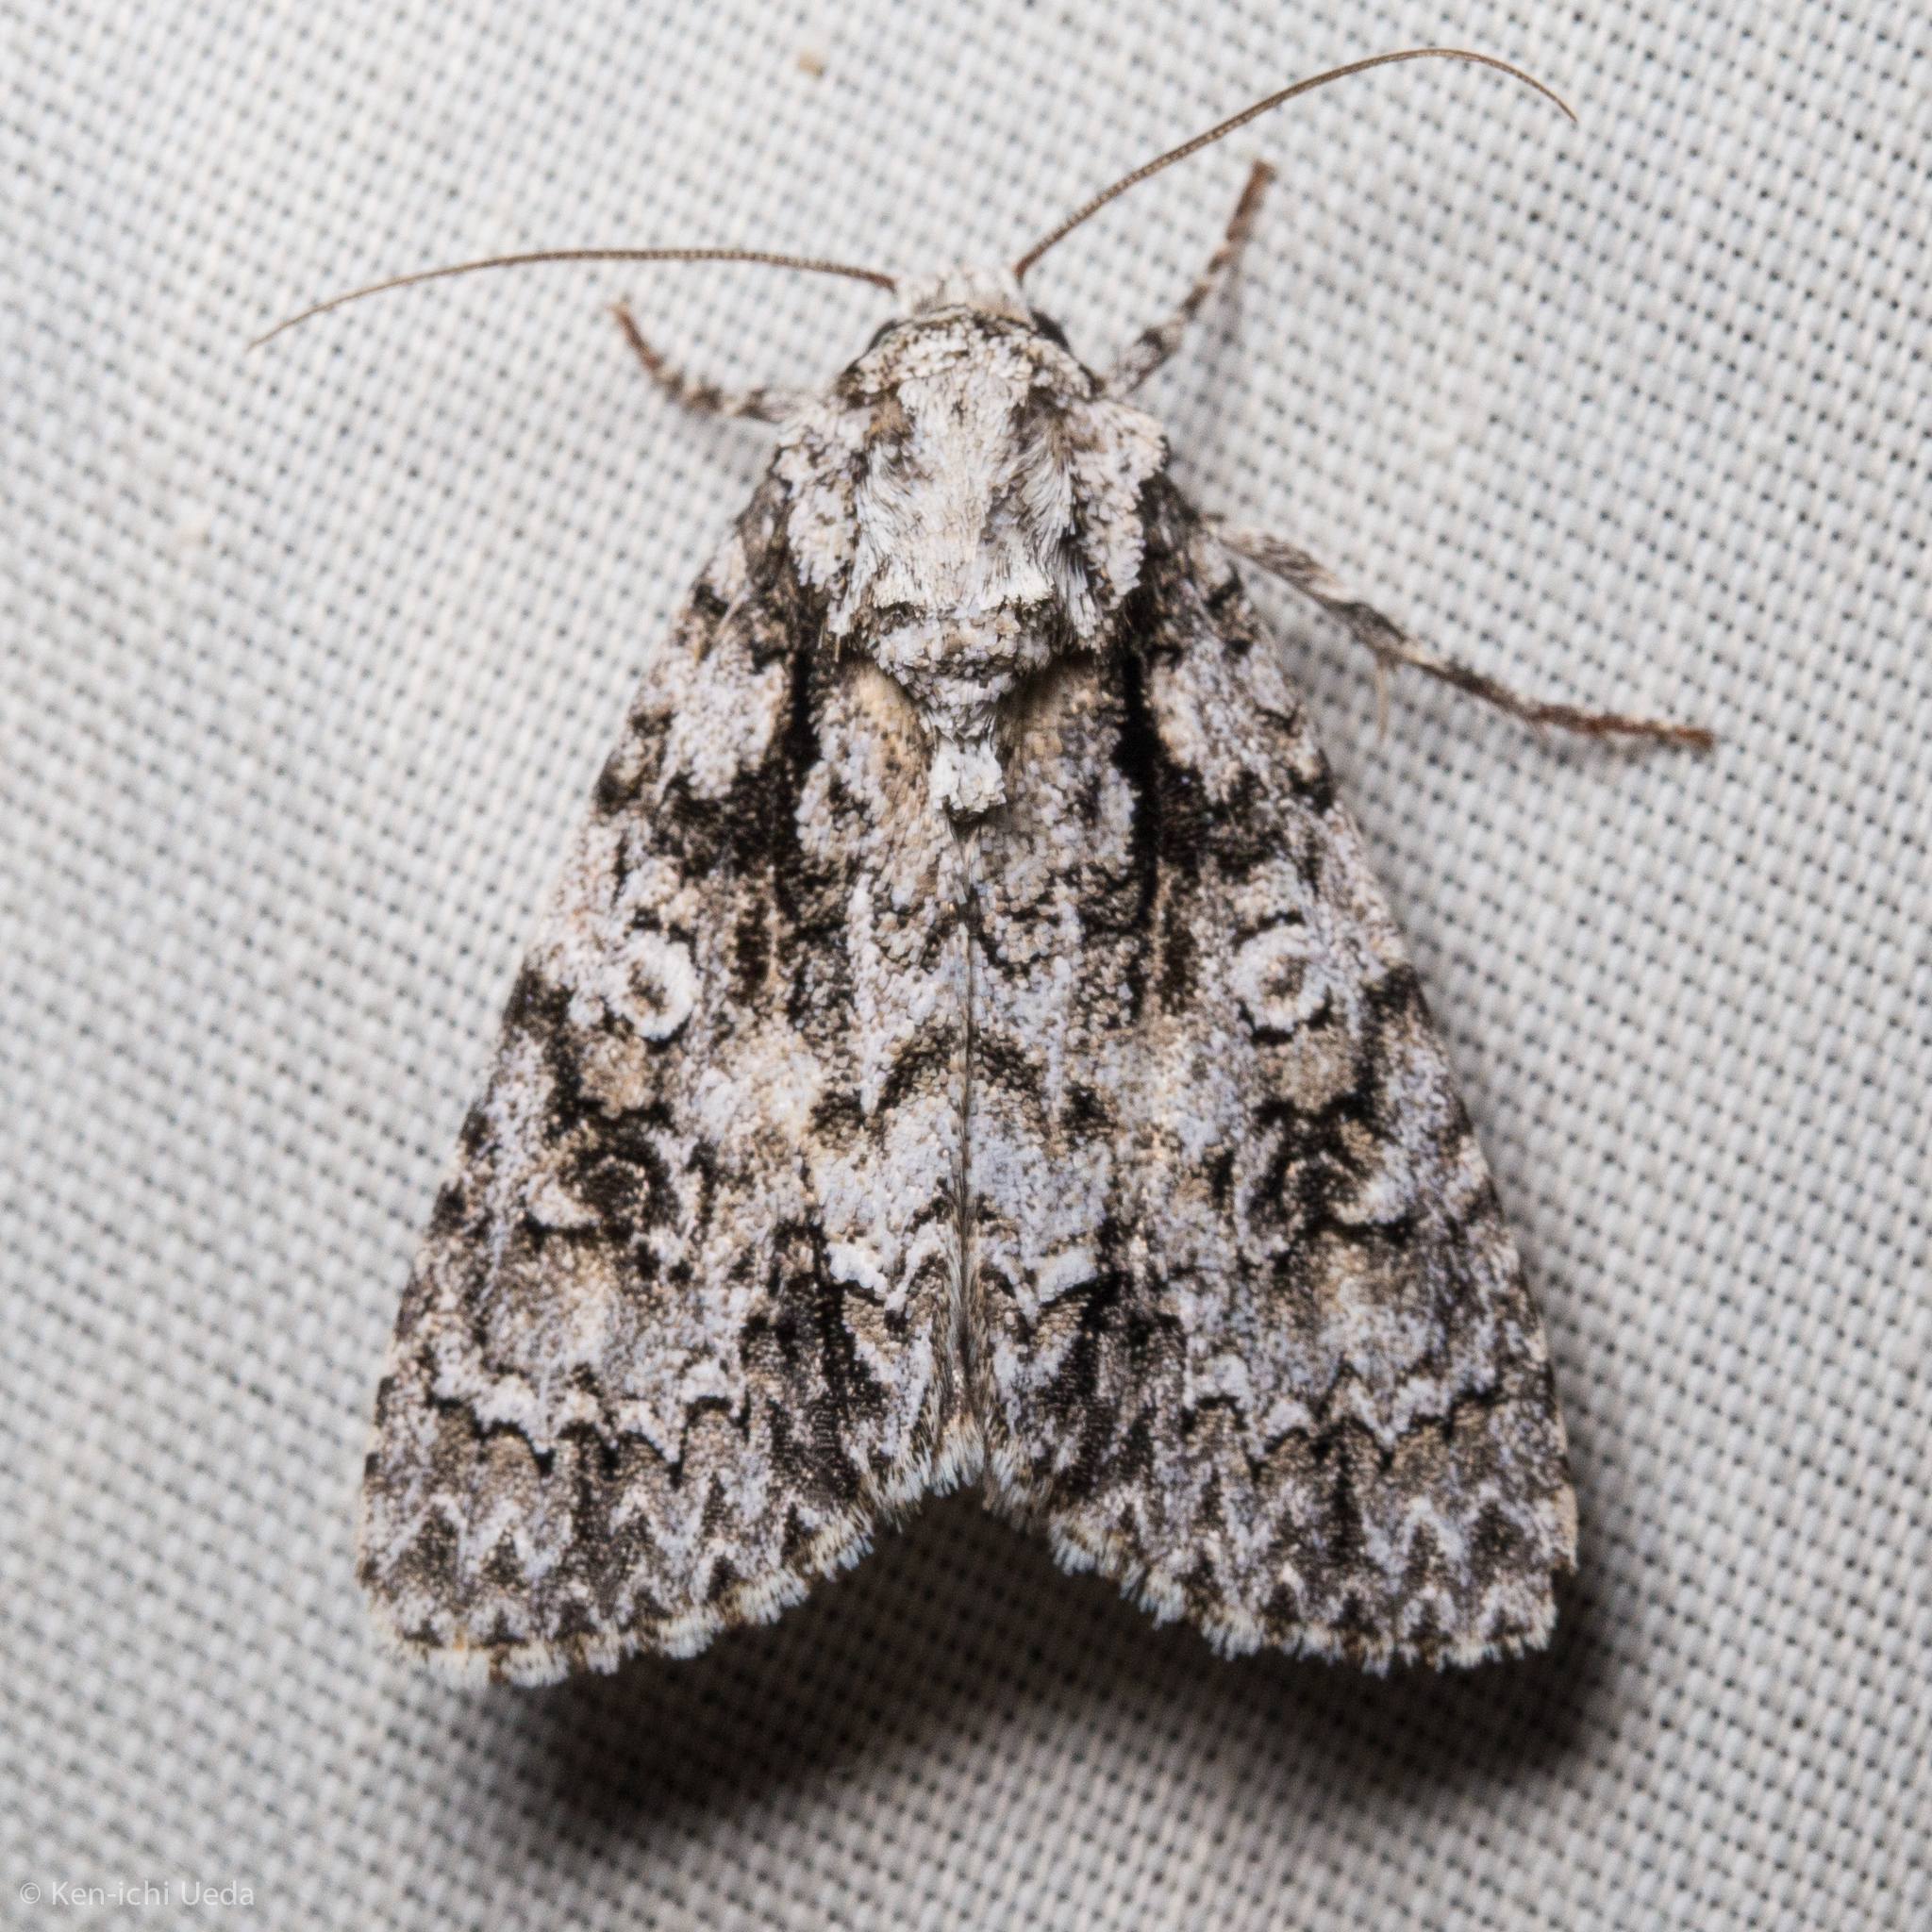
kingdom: Animalia
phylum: Arthropoda
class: Insecta
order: Lepidoptera
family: Noctuidae
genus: Acronicta
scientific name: Acronicta marmorata
